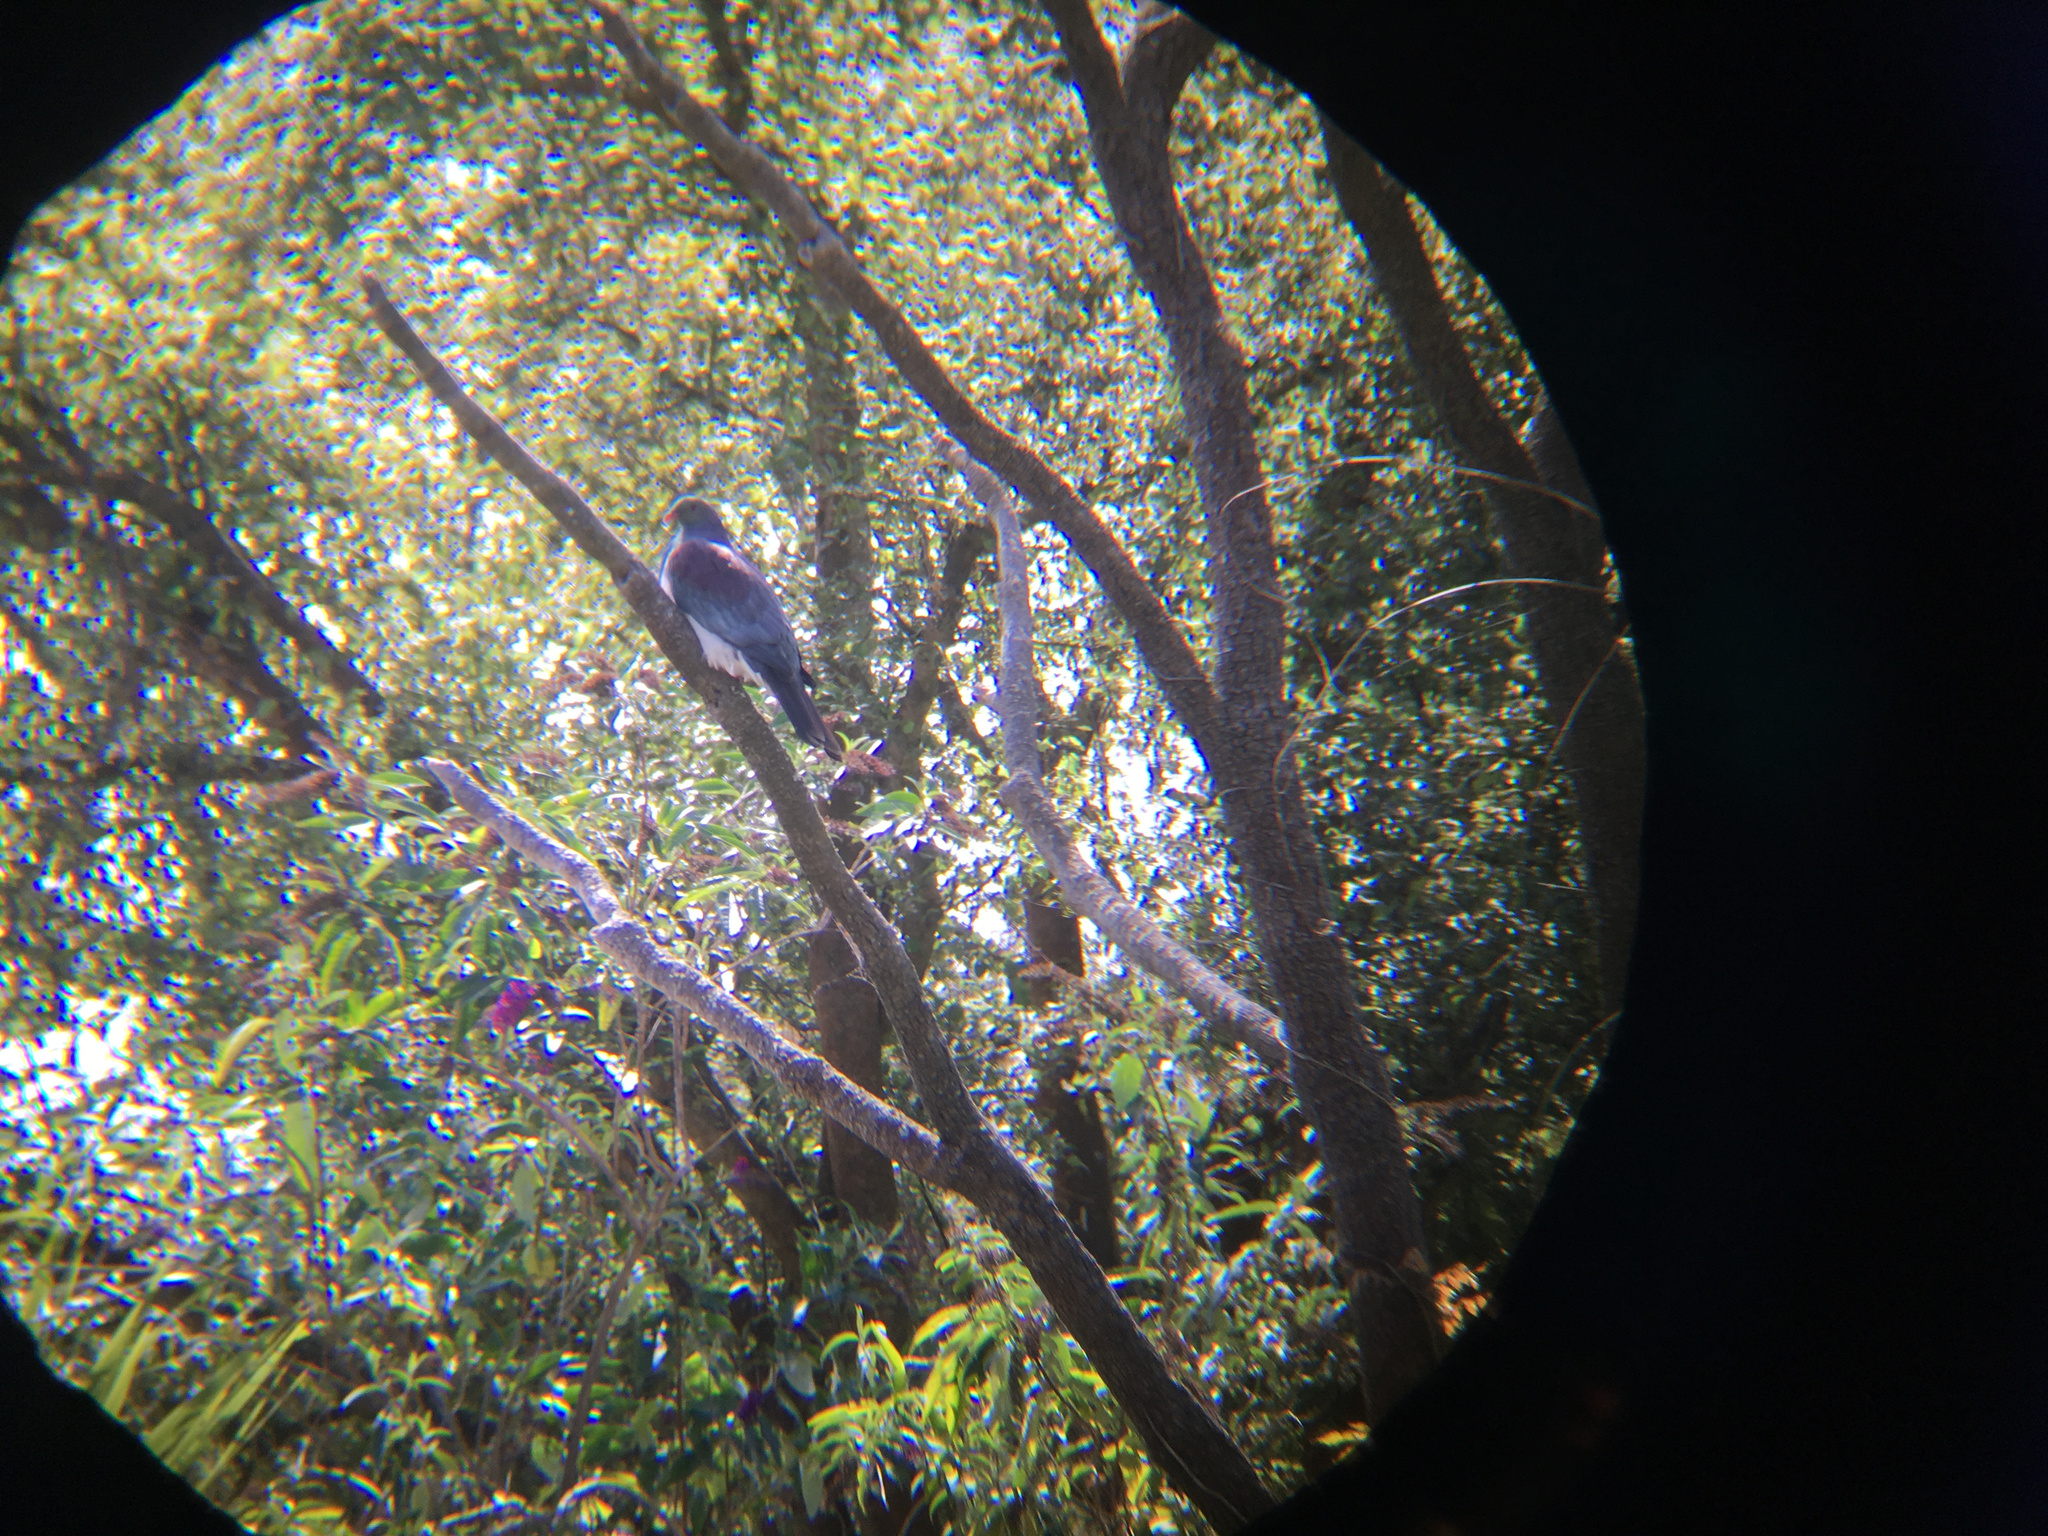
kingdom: Animalia
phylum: Chordata
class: Aves
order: Columbiformes
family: Columbidae
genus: Hemiphaga
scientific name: Hemiphaga novaeseelandiae
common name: New zealand pigeon
